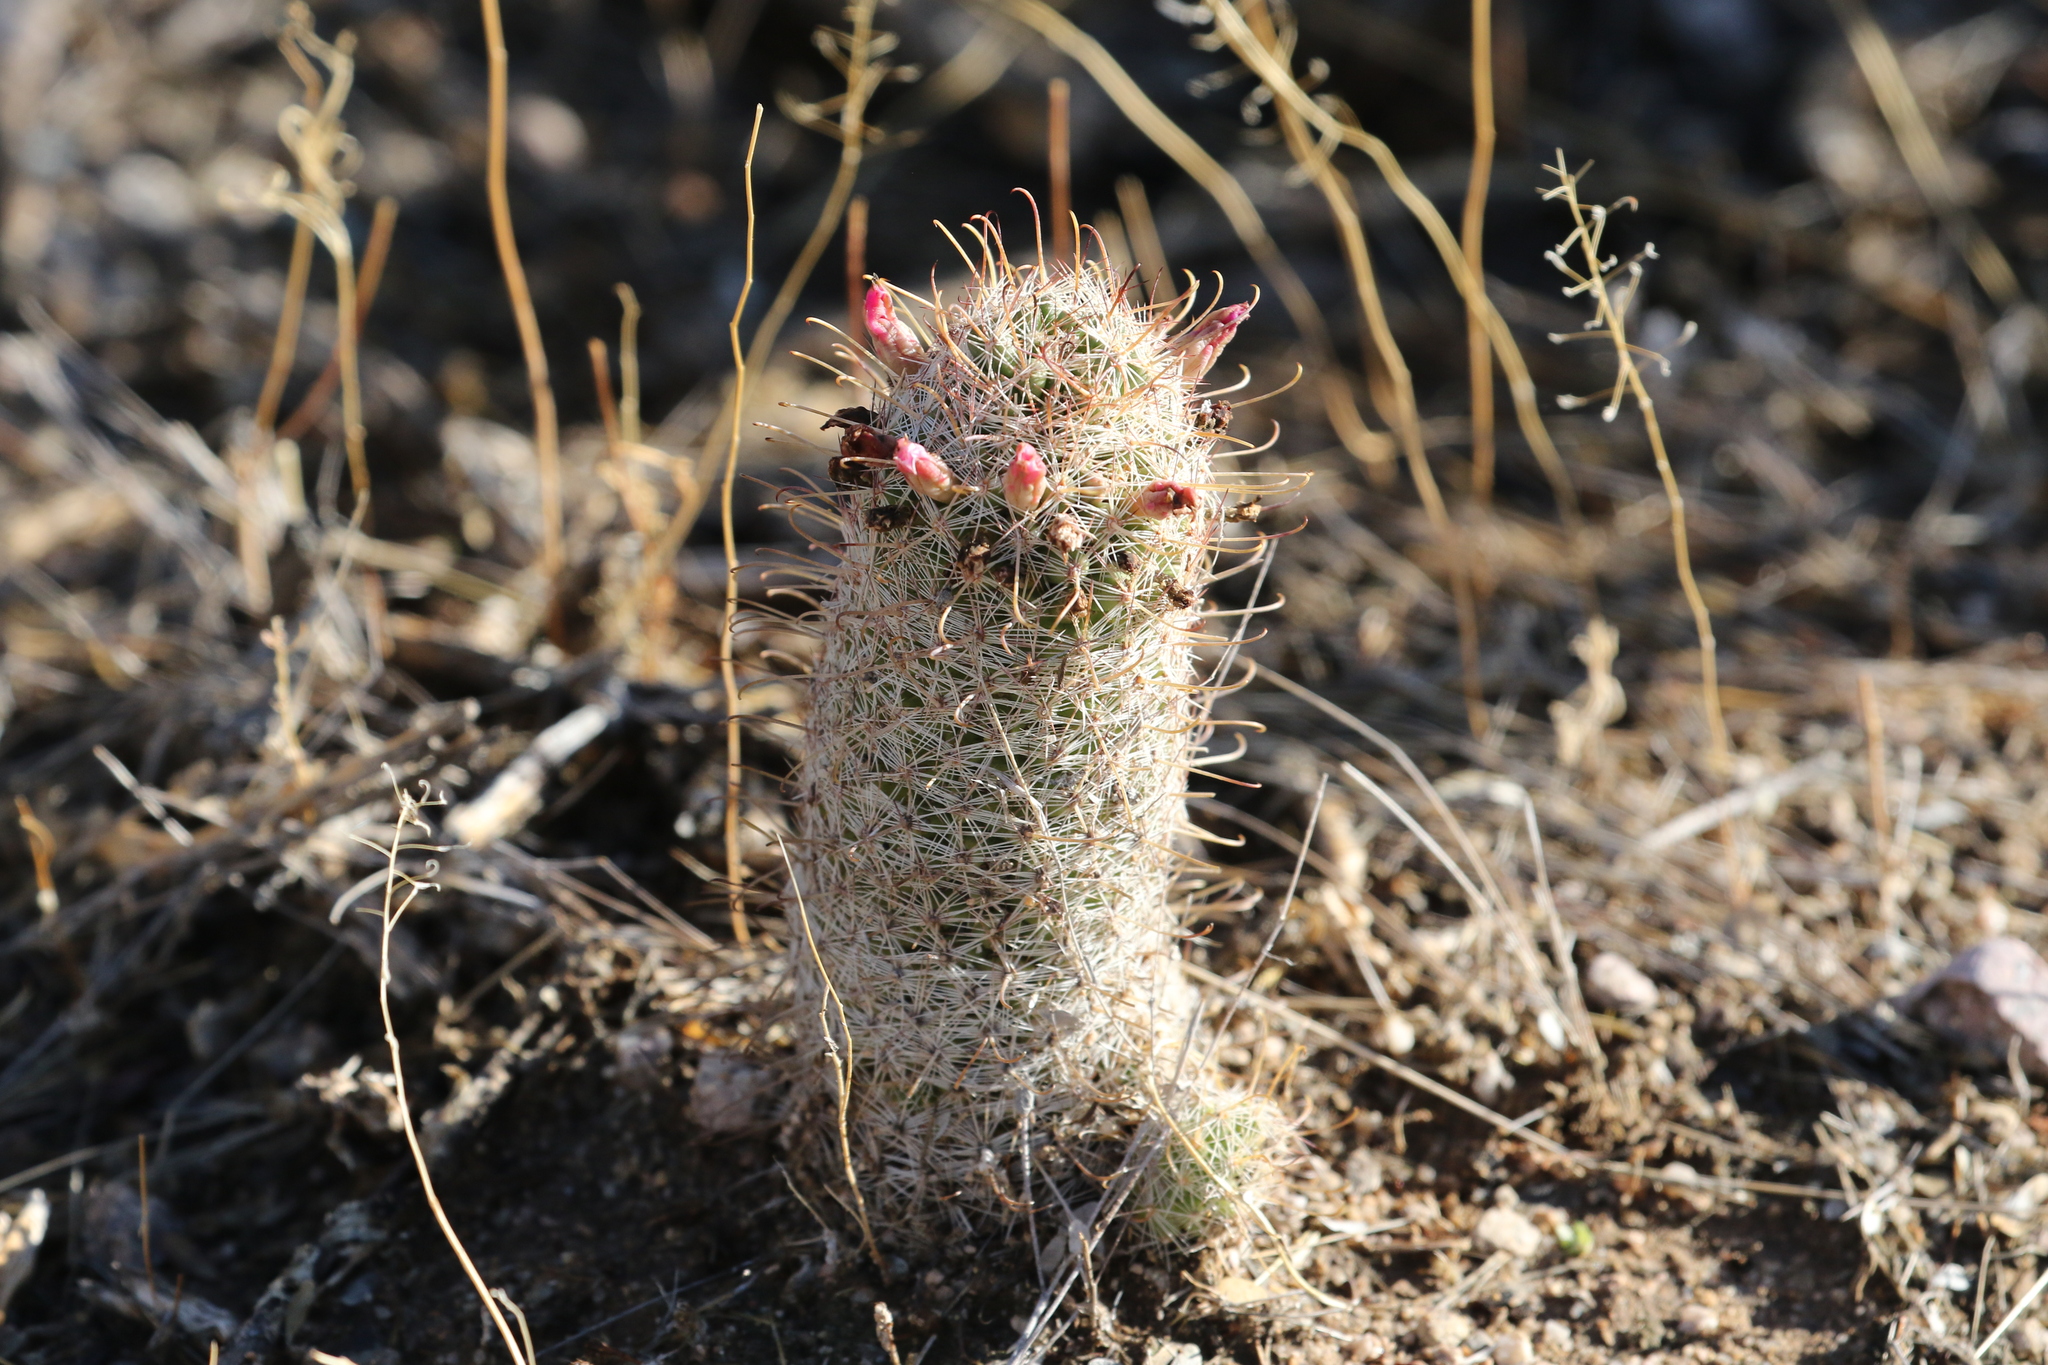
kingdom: Plantae
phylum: Tracheophyta
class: Magnoliopsida
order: Caryophyllales
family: Cactaceae
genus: Cochemiea
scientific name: Cochemiea grahamii
